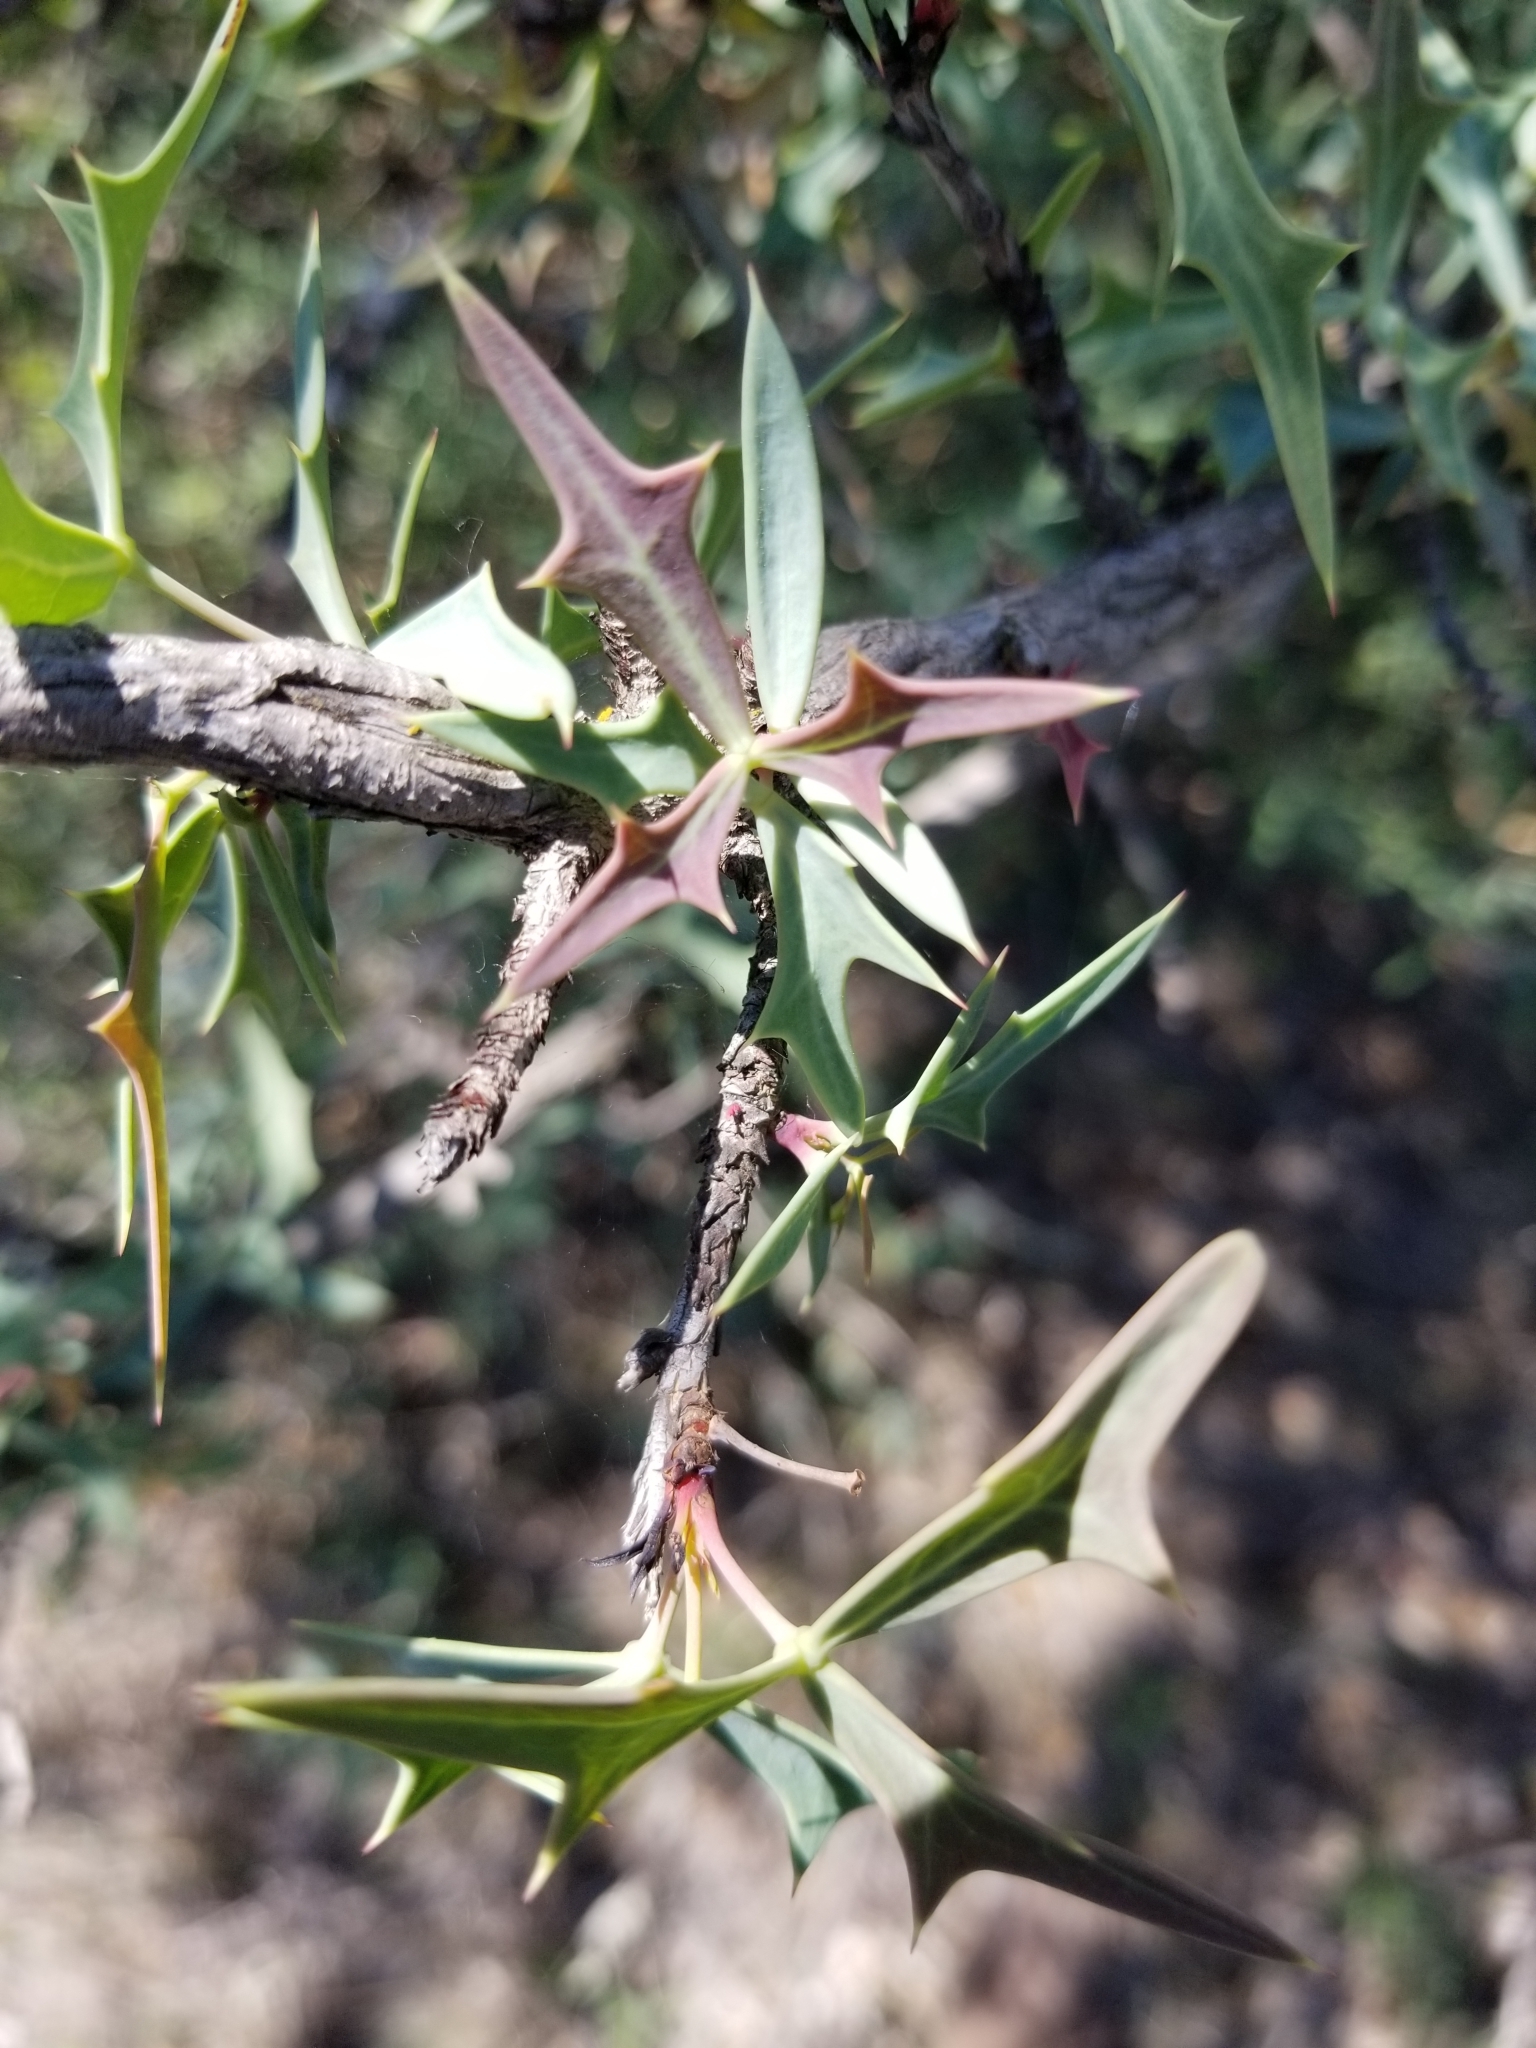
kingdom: Plantae
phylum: Tracheophyta
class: Magnoliopsida
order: Ranunculales
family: Berberidaceae
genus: Alloberberis
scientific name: Alloberberis trifoliolata
